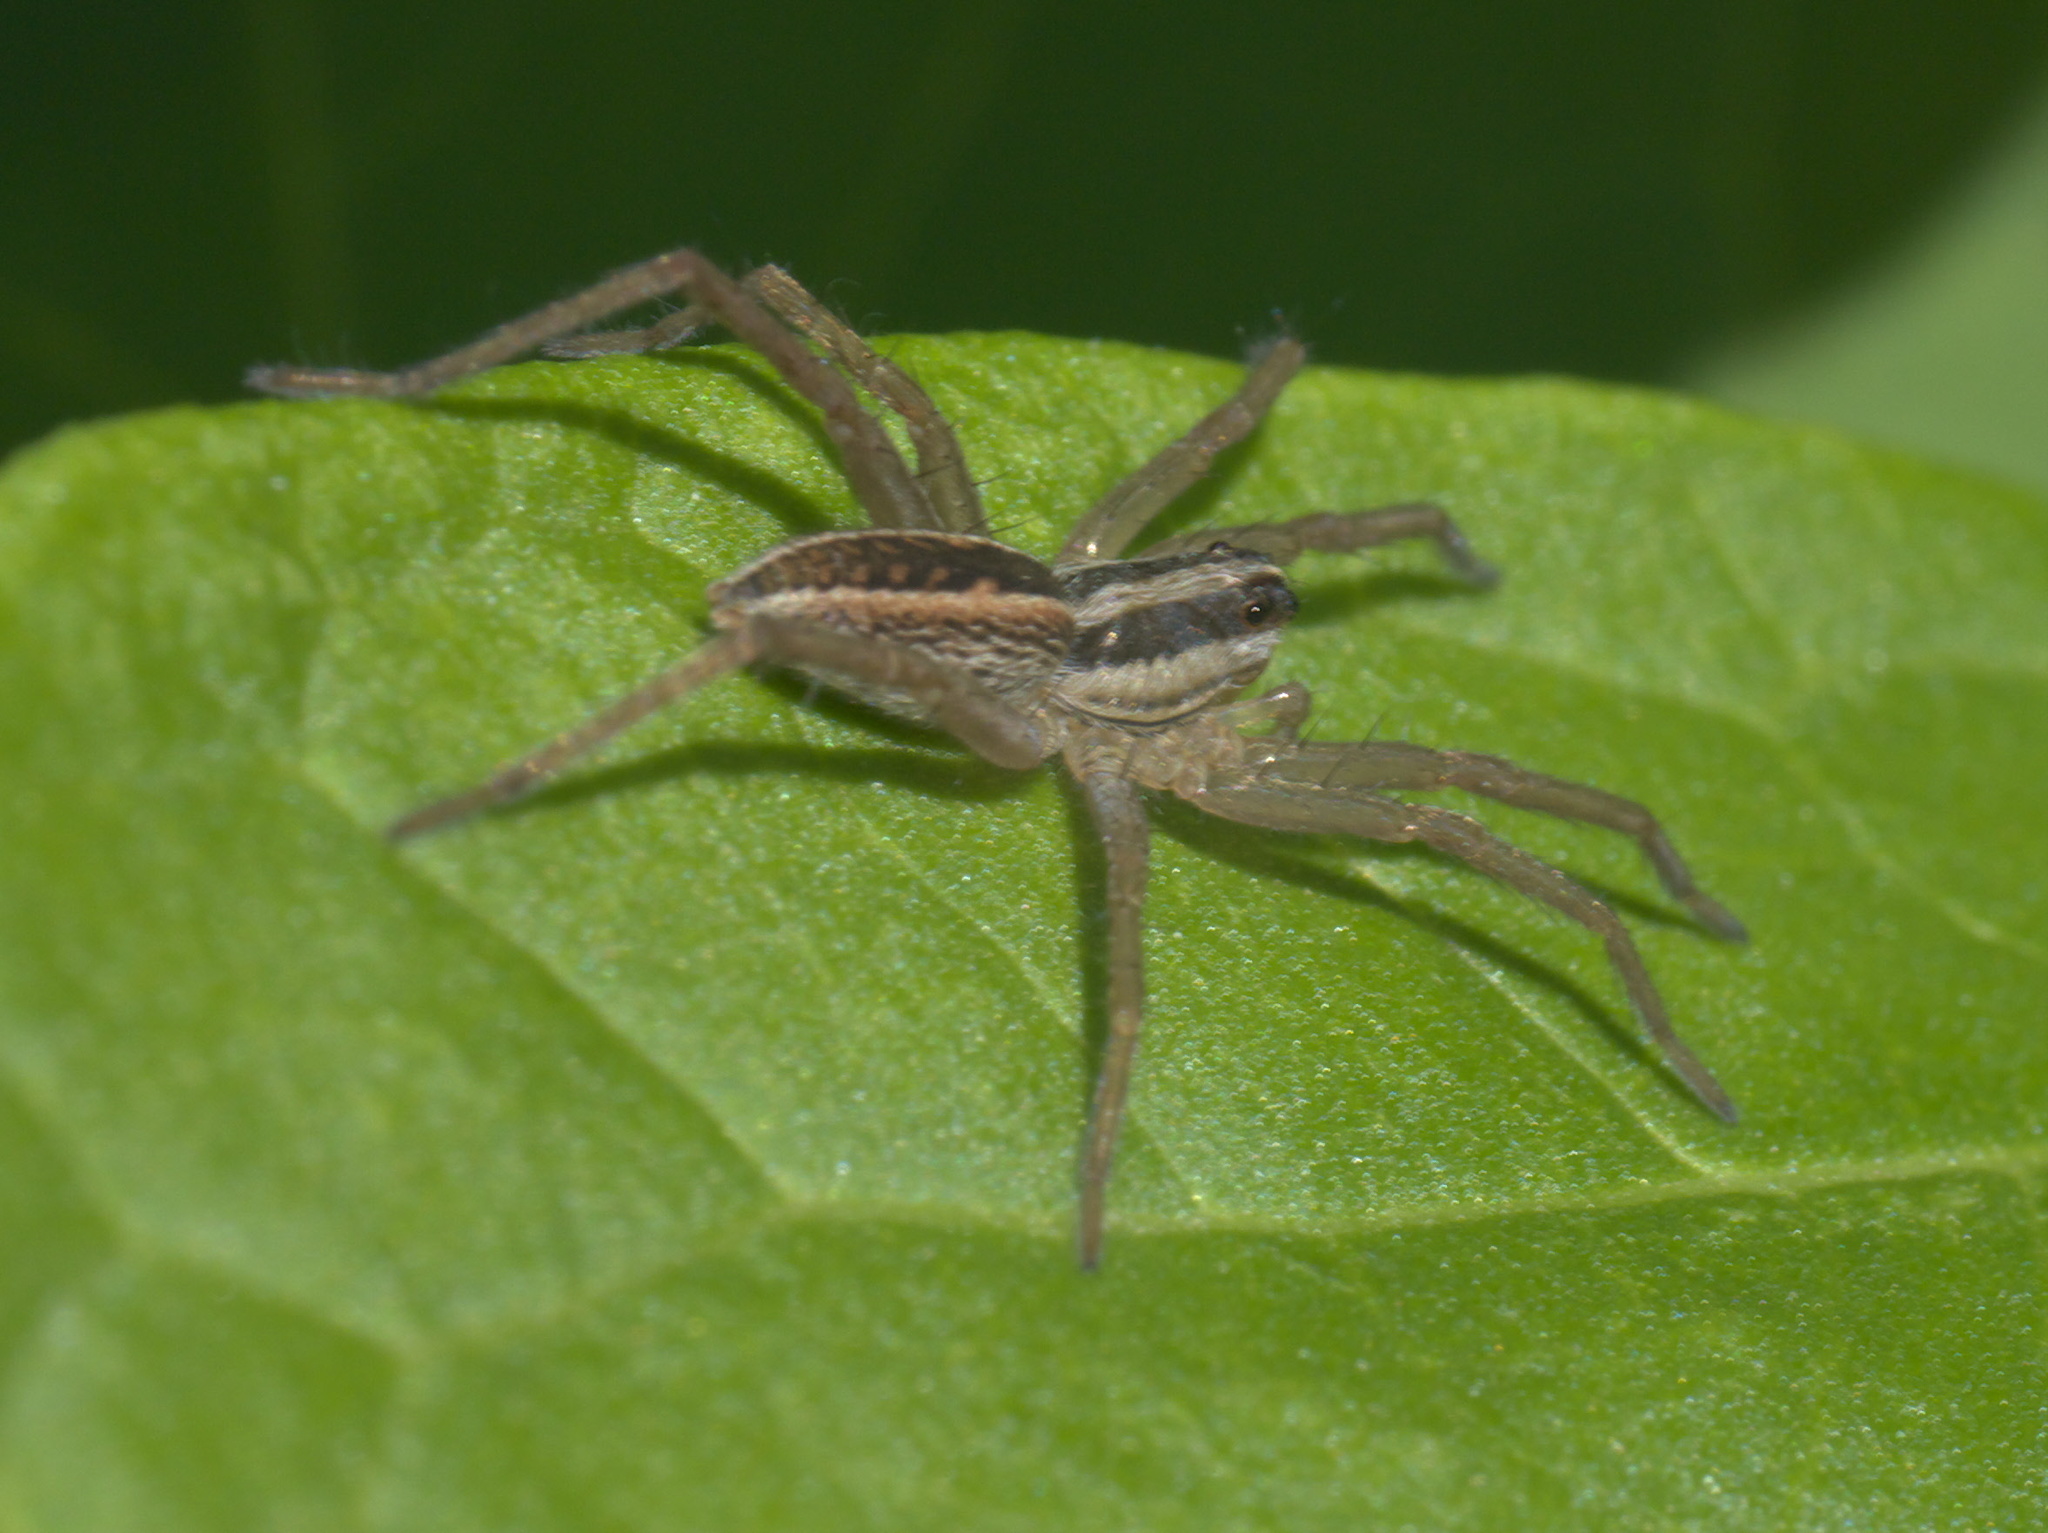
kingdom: Animalia
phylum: Arthropoda
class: Arachnida
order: Araneae
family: Lycosidae
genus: Rabidosa
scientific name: Rabidosa rabida
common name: Rabid wolf spider
